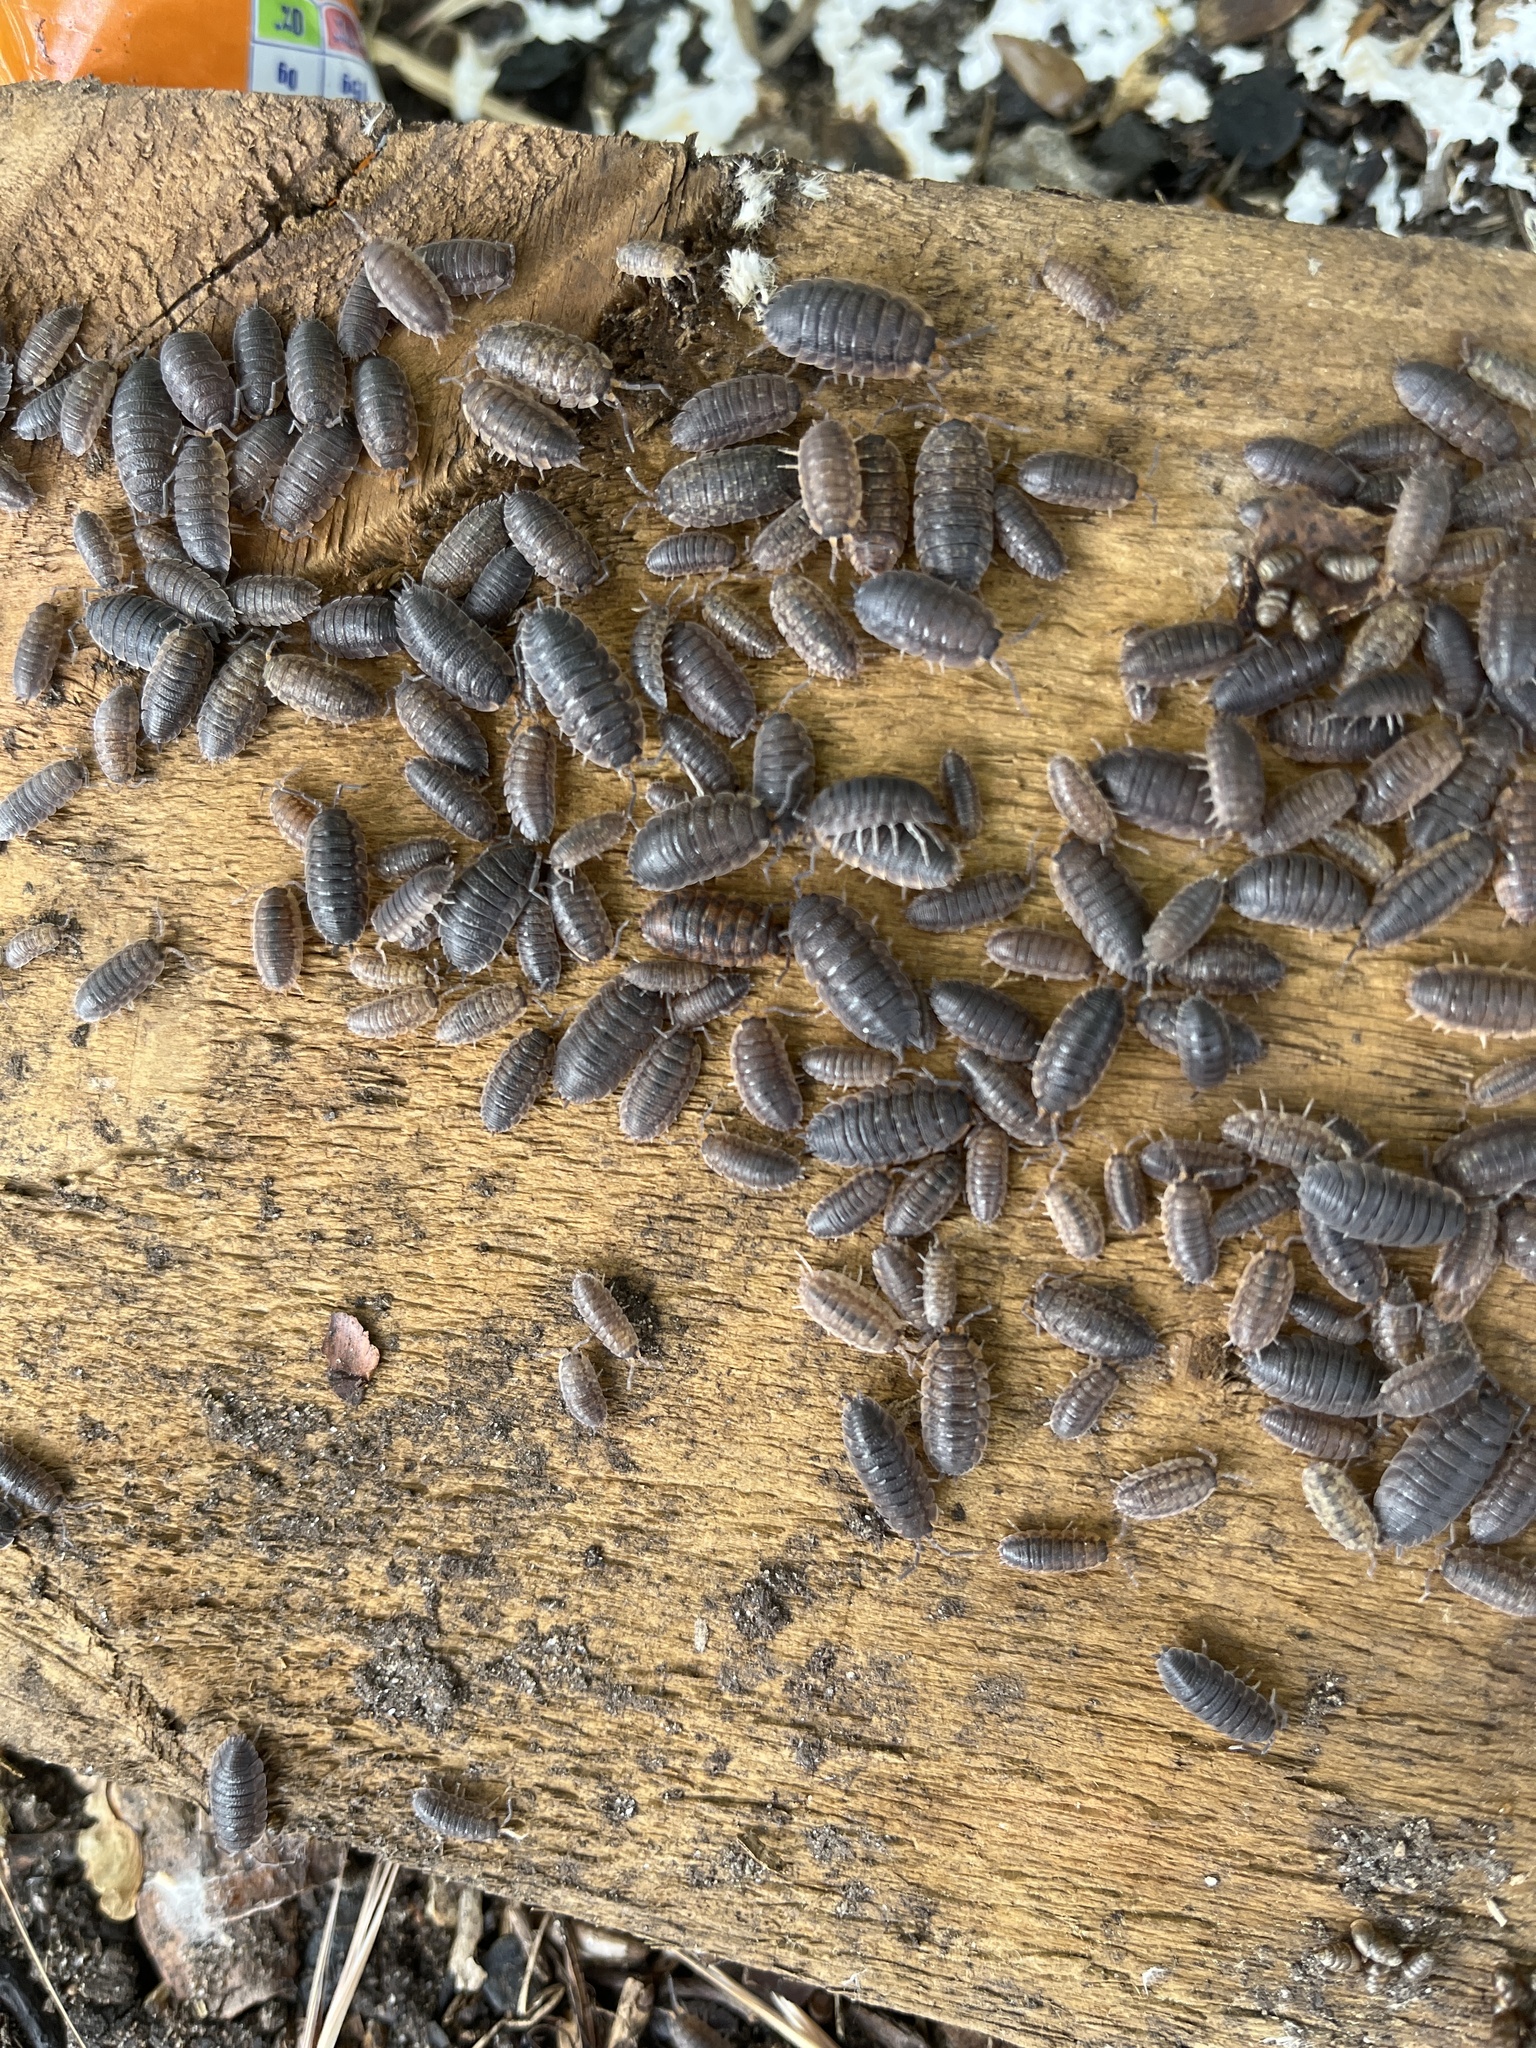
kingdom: Animalia
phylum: Arthropoda
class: Malacostraca
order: Isopoda
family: Porcellionidae
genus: Porcellio
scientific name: Porcellio scaber
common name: Common rough woodlouse
